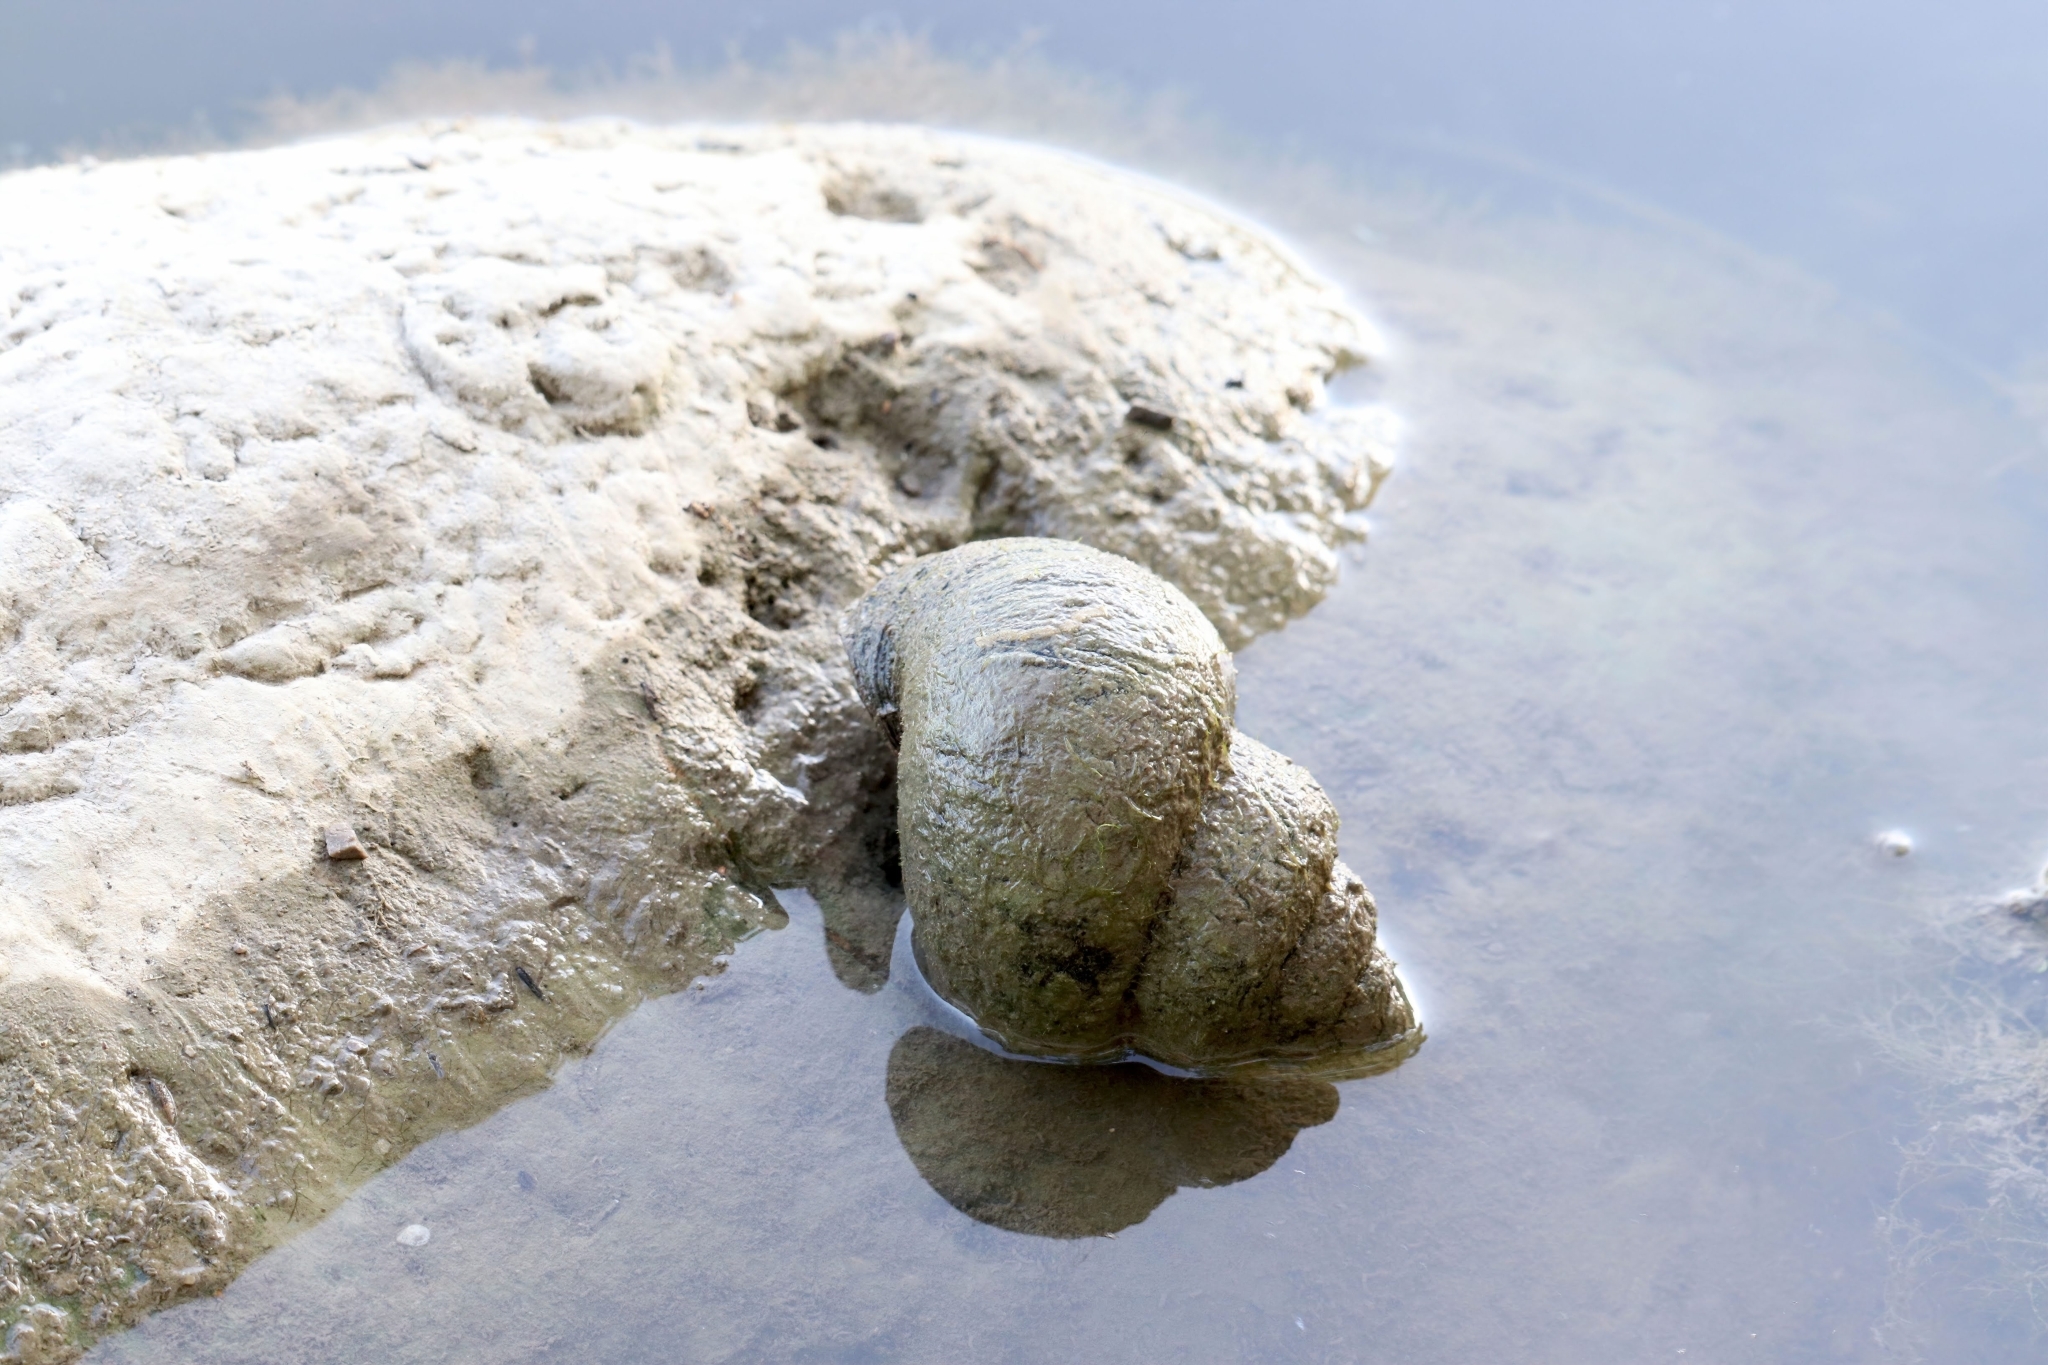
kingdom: Animalia
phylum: Mollusca
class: Gastropoda
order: Architaenioglossa
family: Viviparidae
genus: Cipangopaludina
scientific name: Cipangopaludina chinensis
